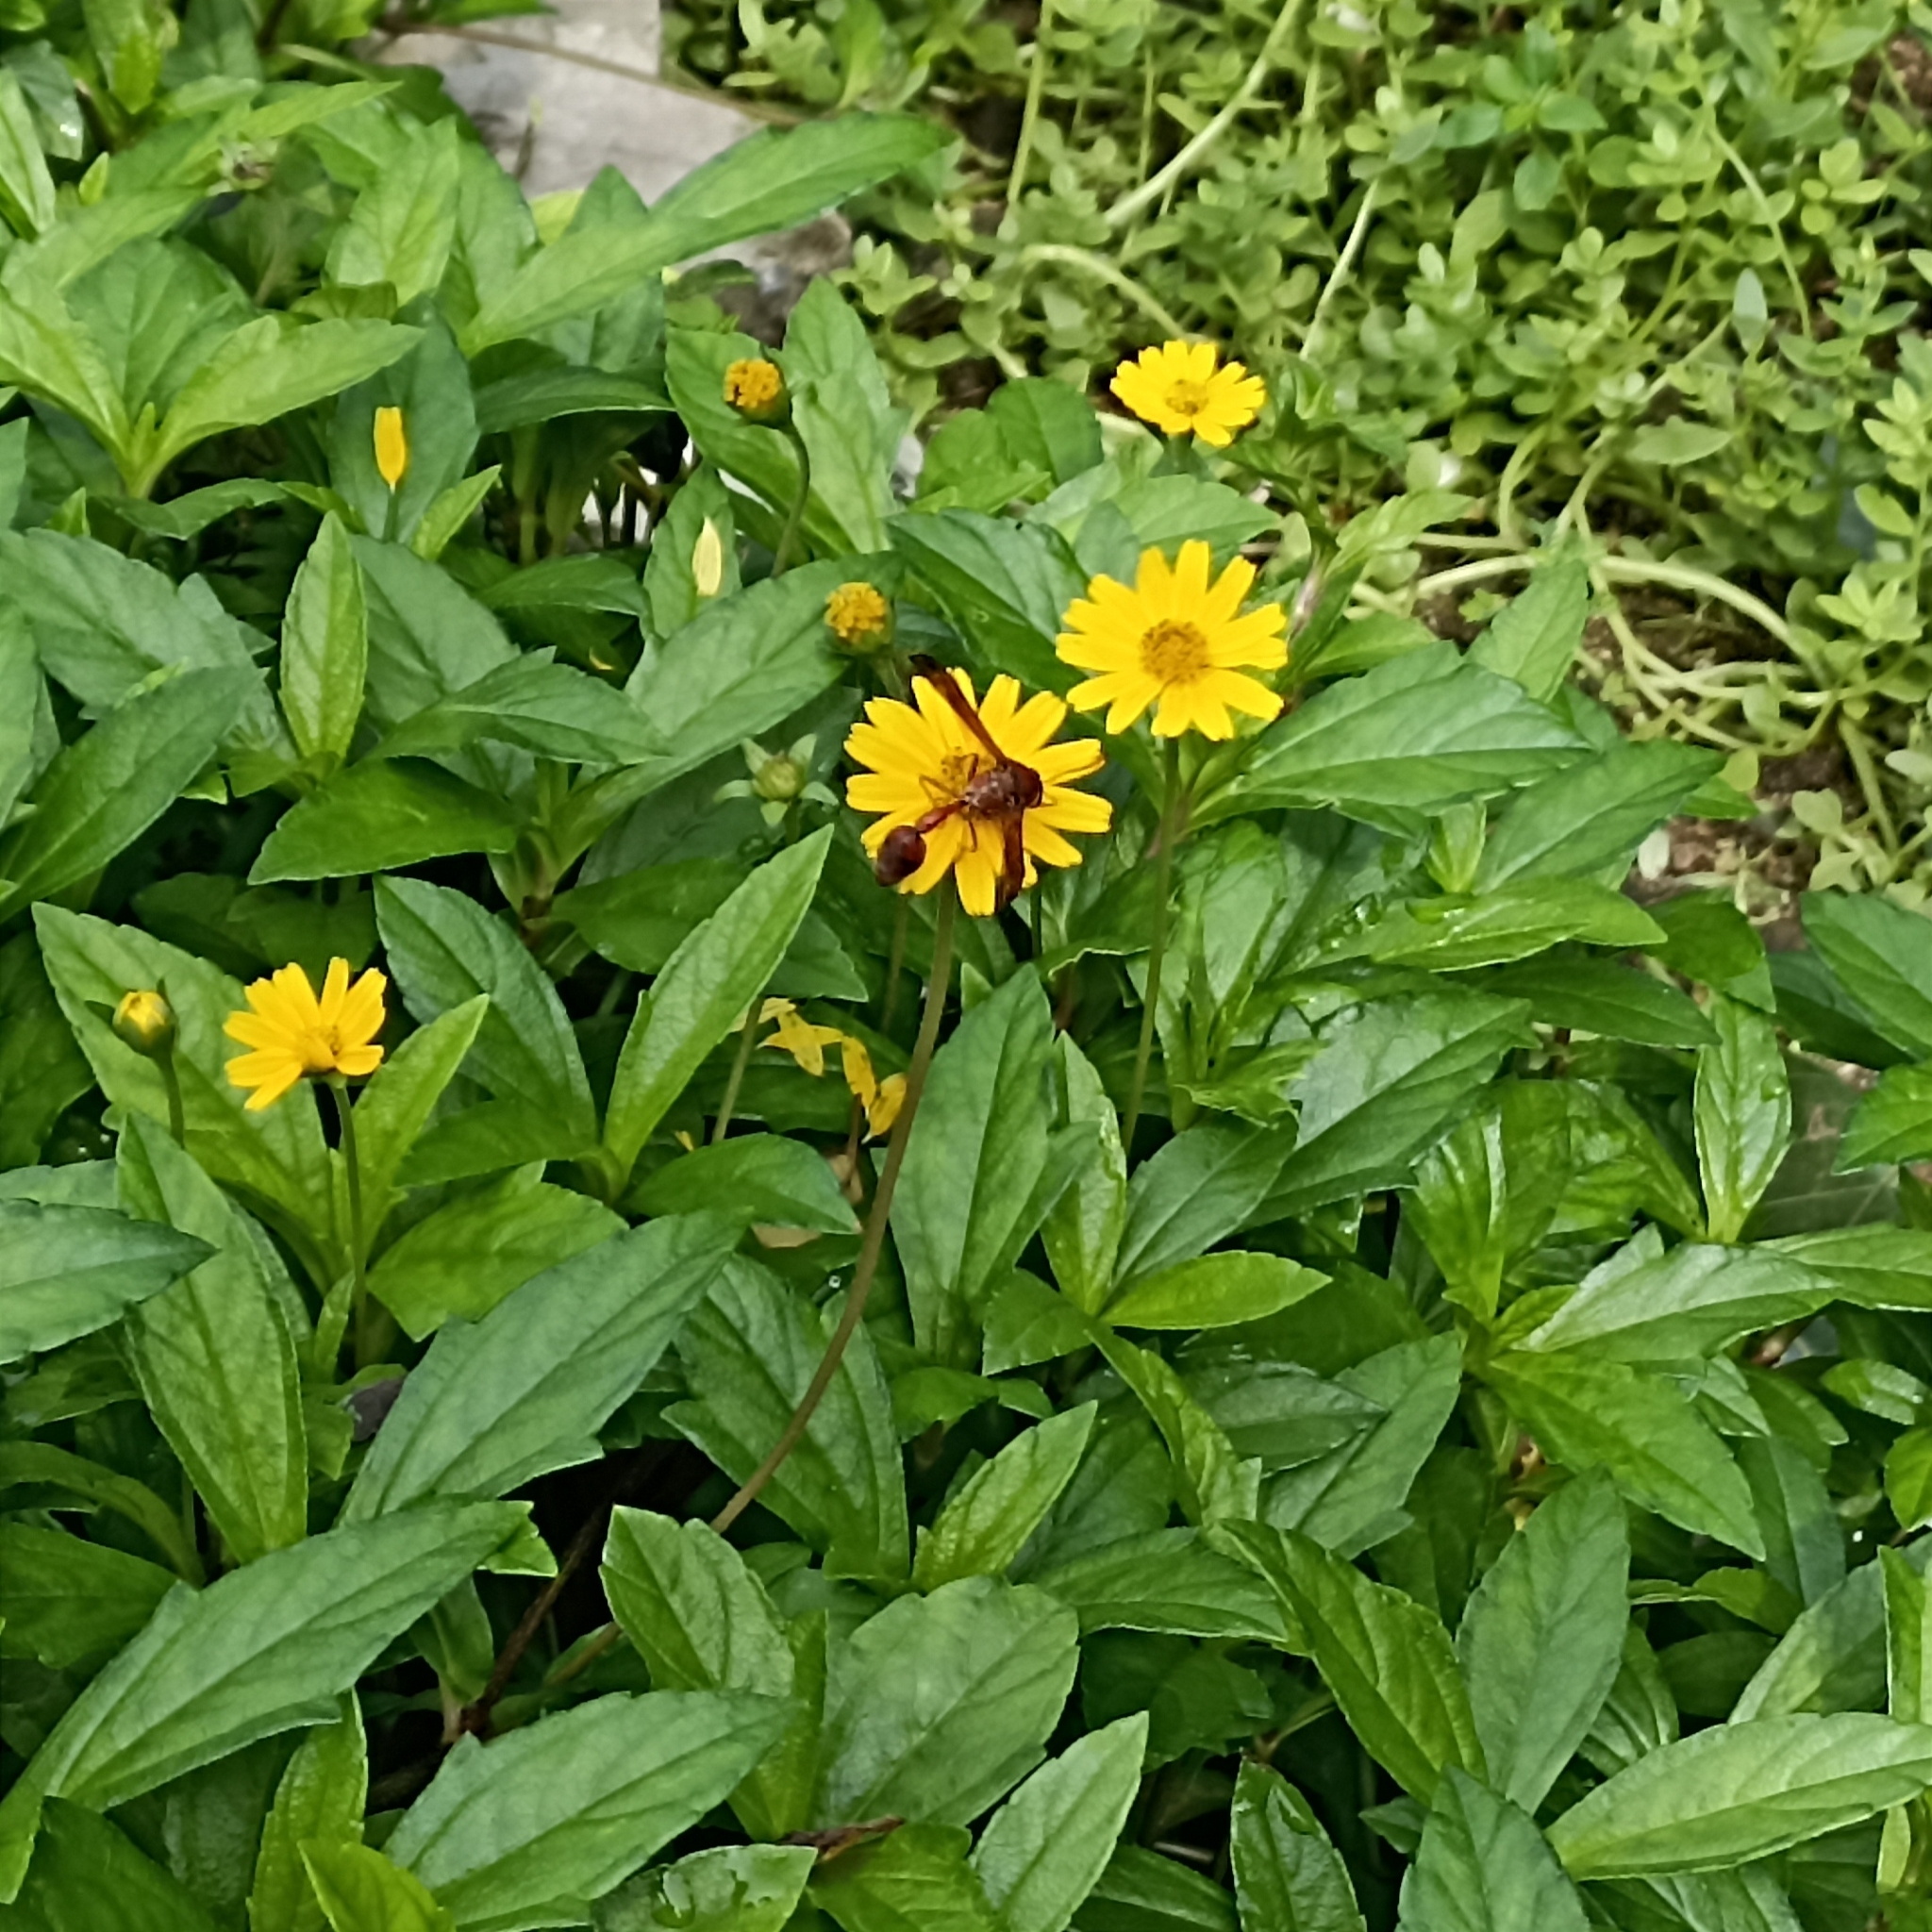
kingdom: Animalia
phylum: Arthropoda
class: Insecta
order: Hymenoptera
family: Eumenidae
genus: Delta
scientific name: Delta conoideum
